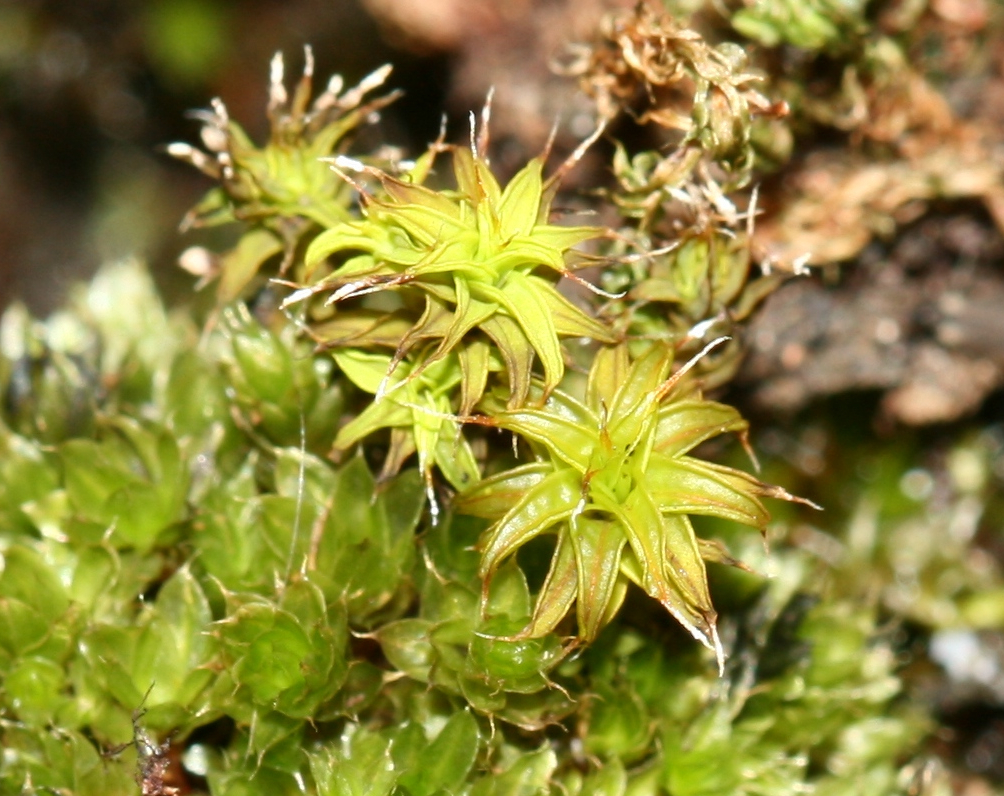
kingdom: Plantae
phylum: Bryophyta
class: Bryopsida
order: Pottiales
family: Pottiaceae
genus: Syntrichia
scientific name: Syntrichia ruralis
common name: Sidewalk screw moss
